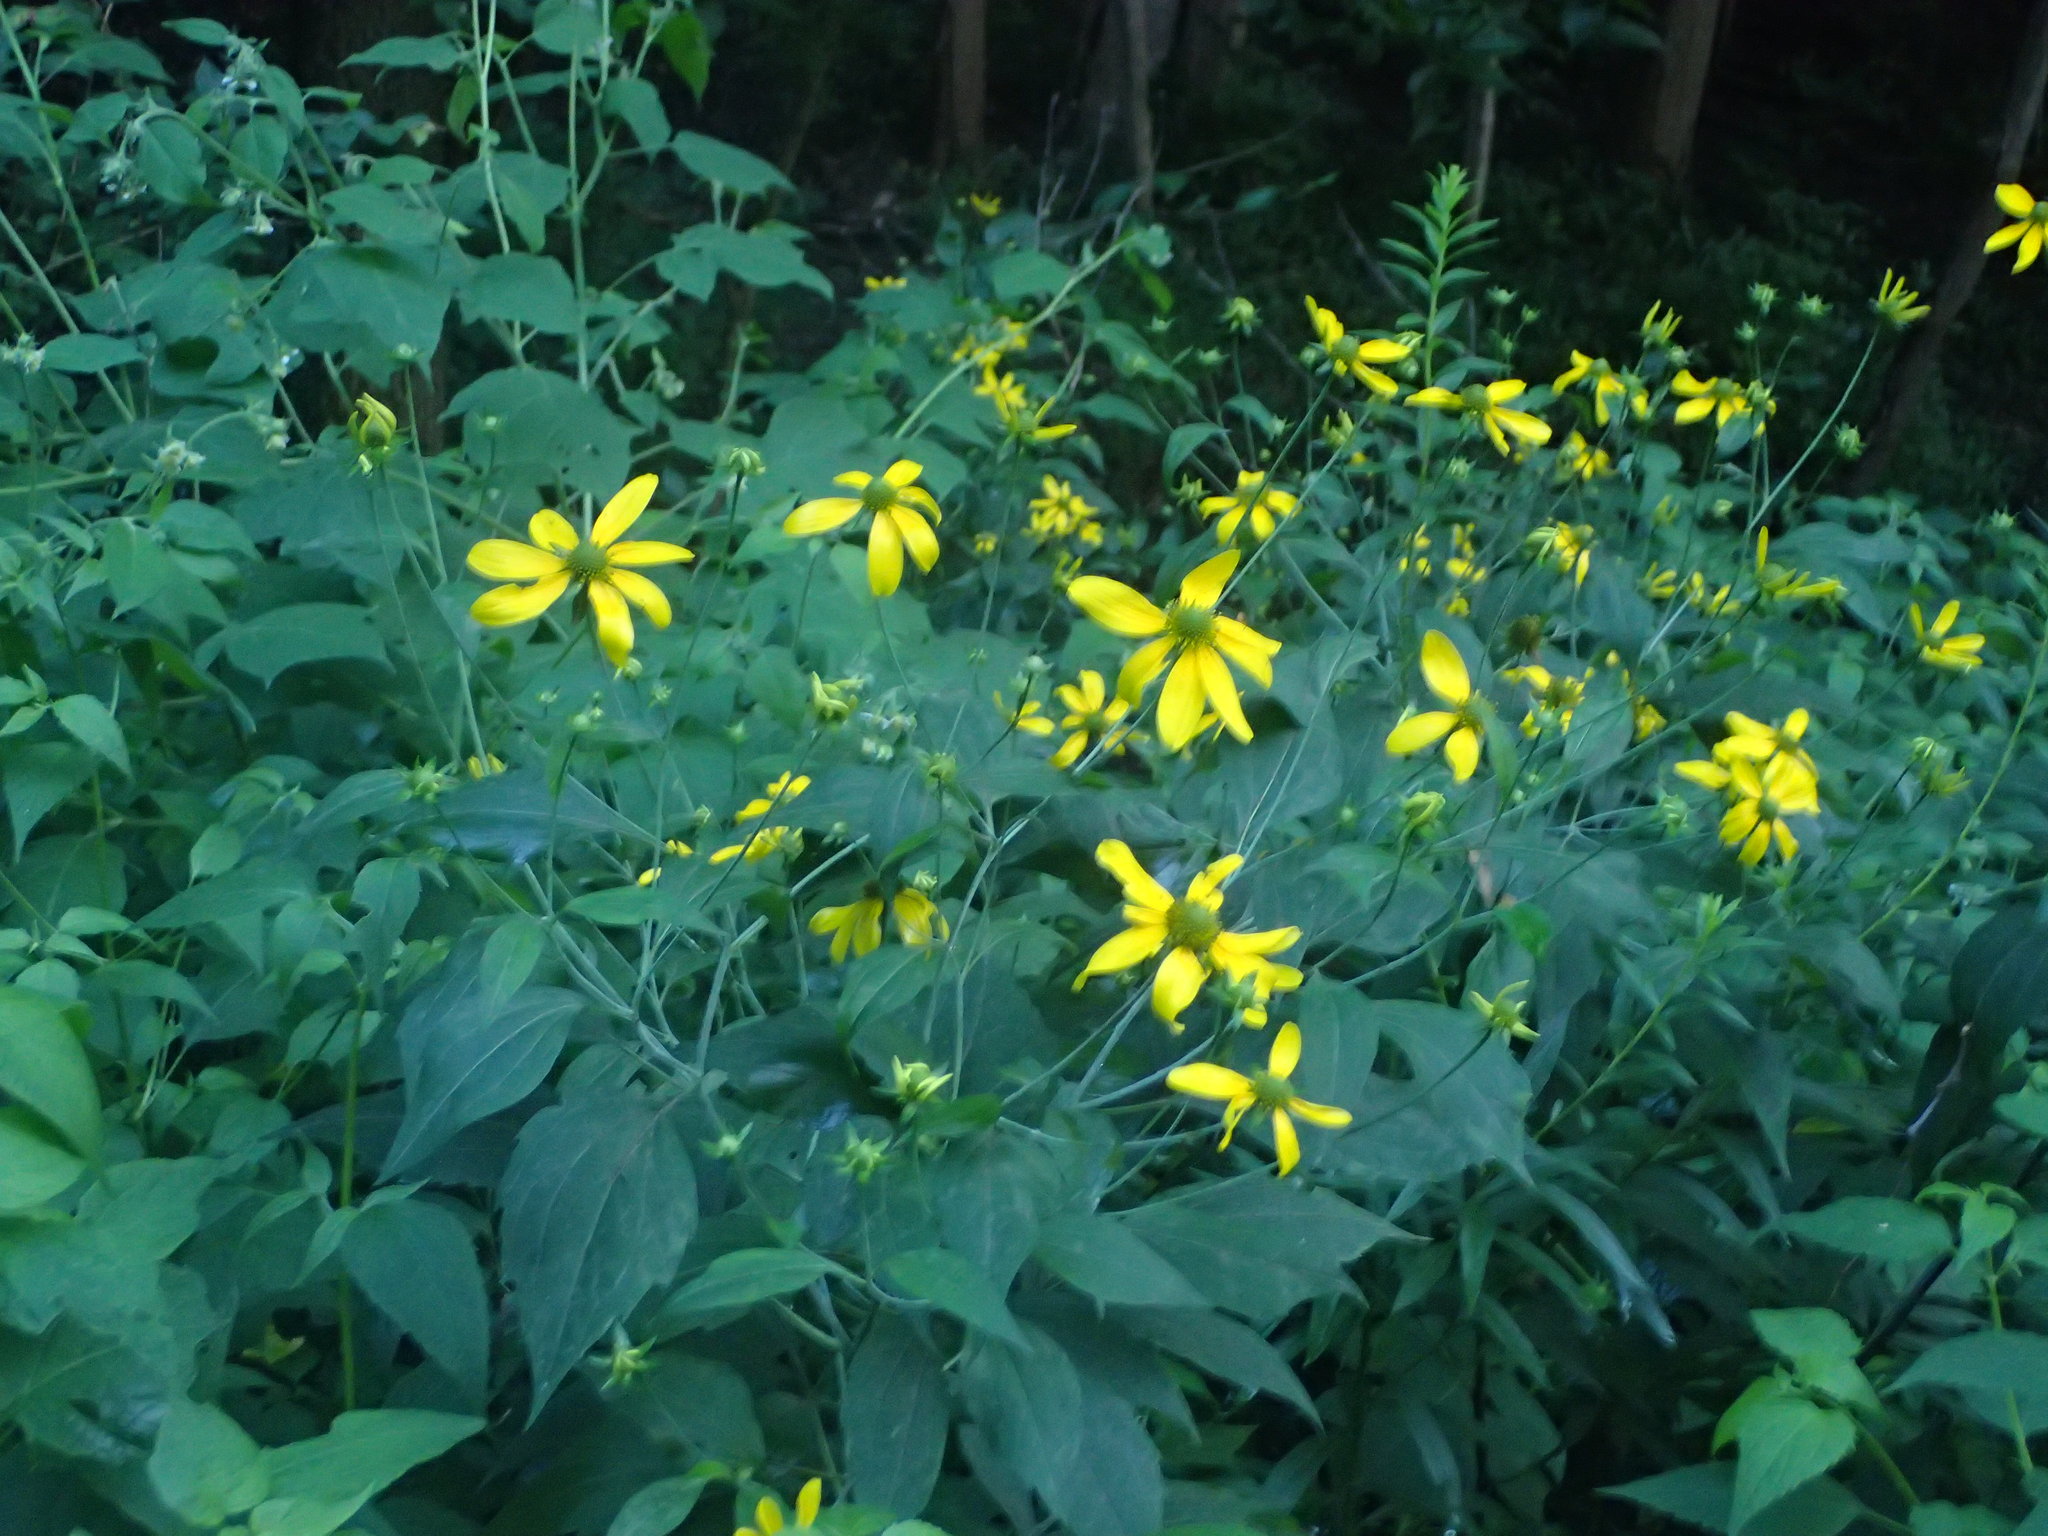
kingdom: Plantae
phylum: Tracheophyta
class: Magnoliopsida
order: Asterales
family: Asteraceae
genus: Rudbeckia
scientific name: Rudbeckia laciniata
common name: Coneflower
